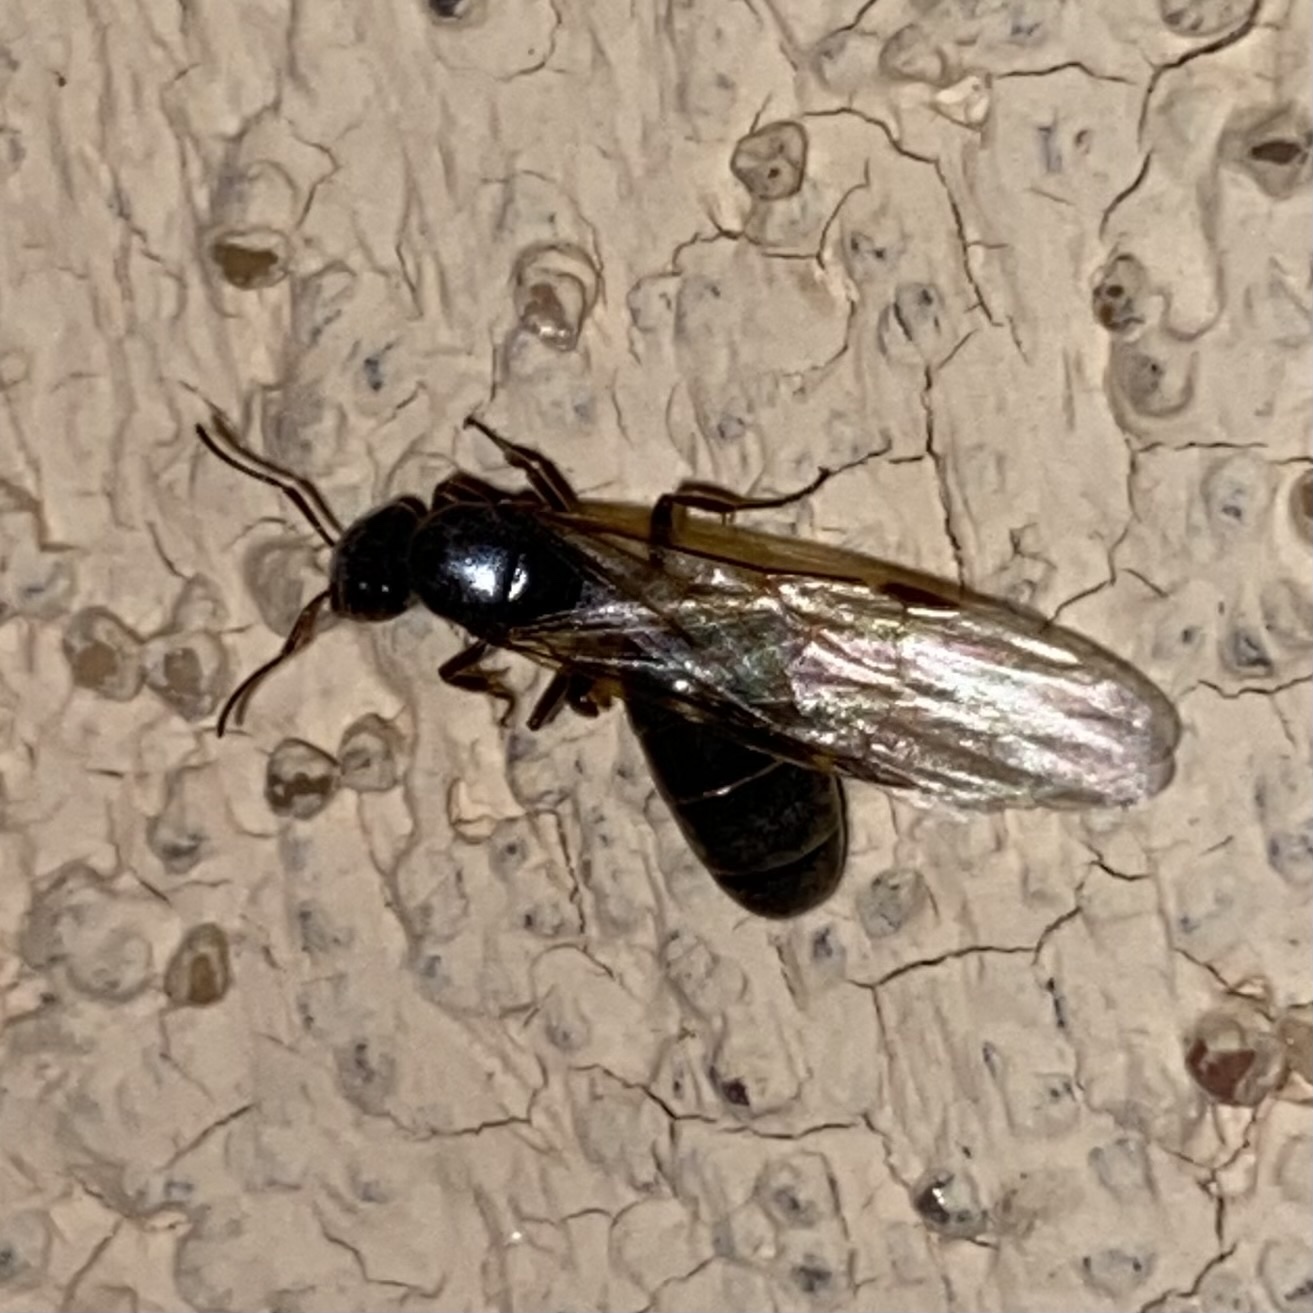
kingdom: Animalia
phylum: Arthropoda
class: Insecta
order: Hymenoptera
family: Formicidae
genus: Liometopum
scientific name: Liometopum luctuosum
